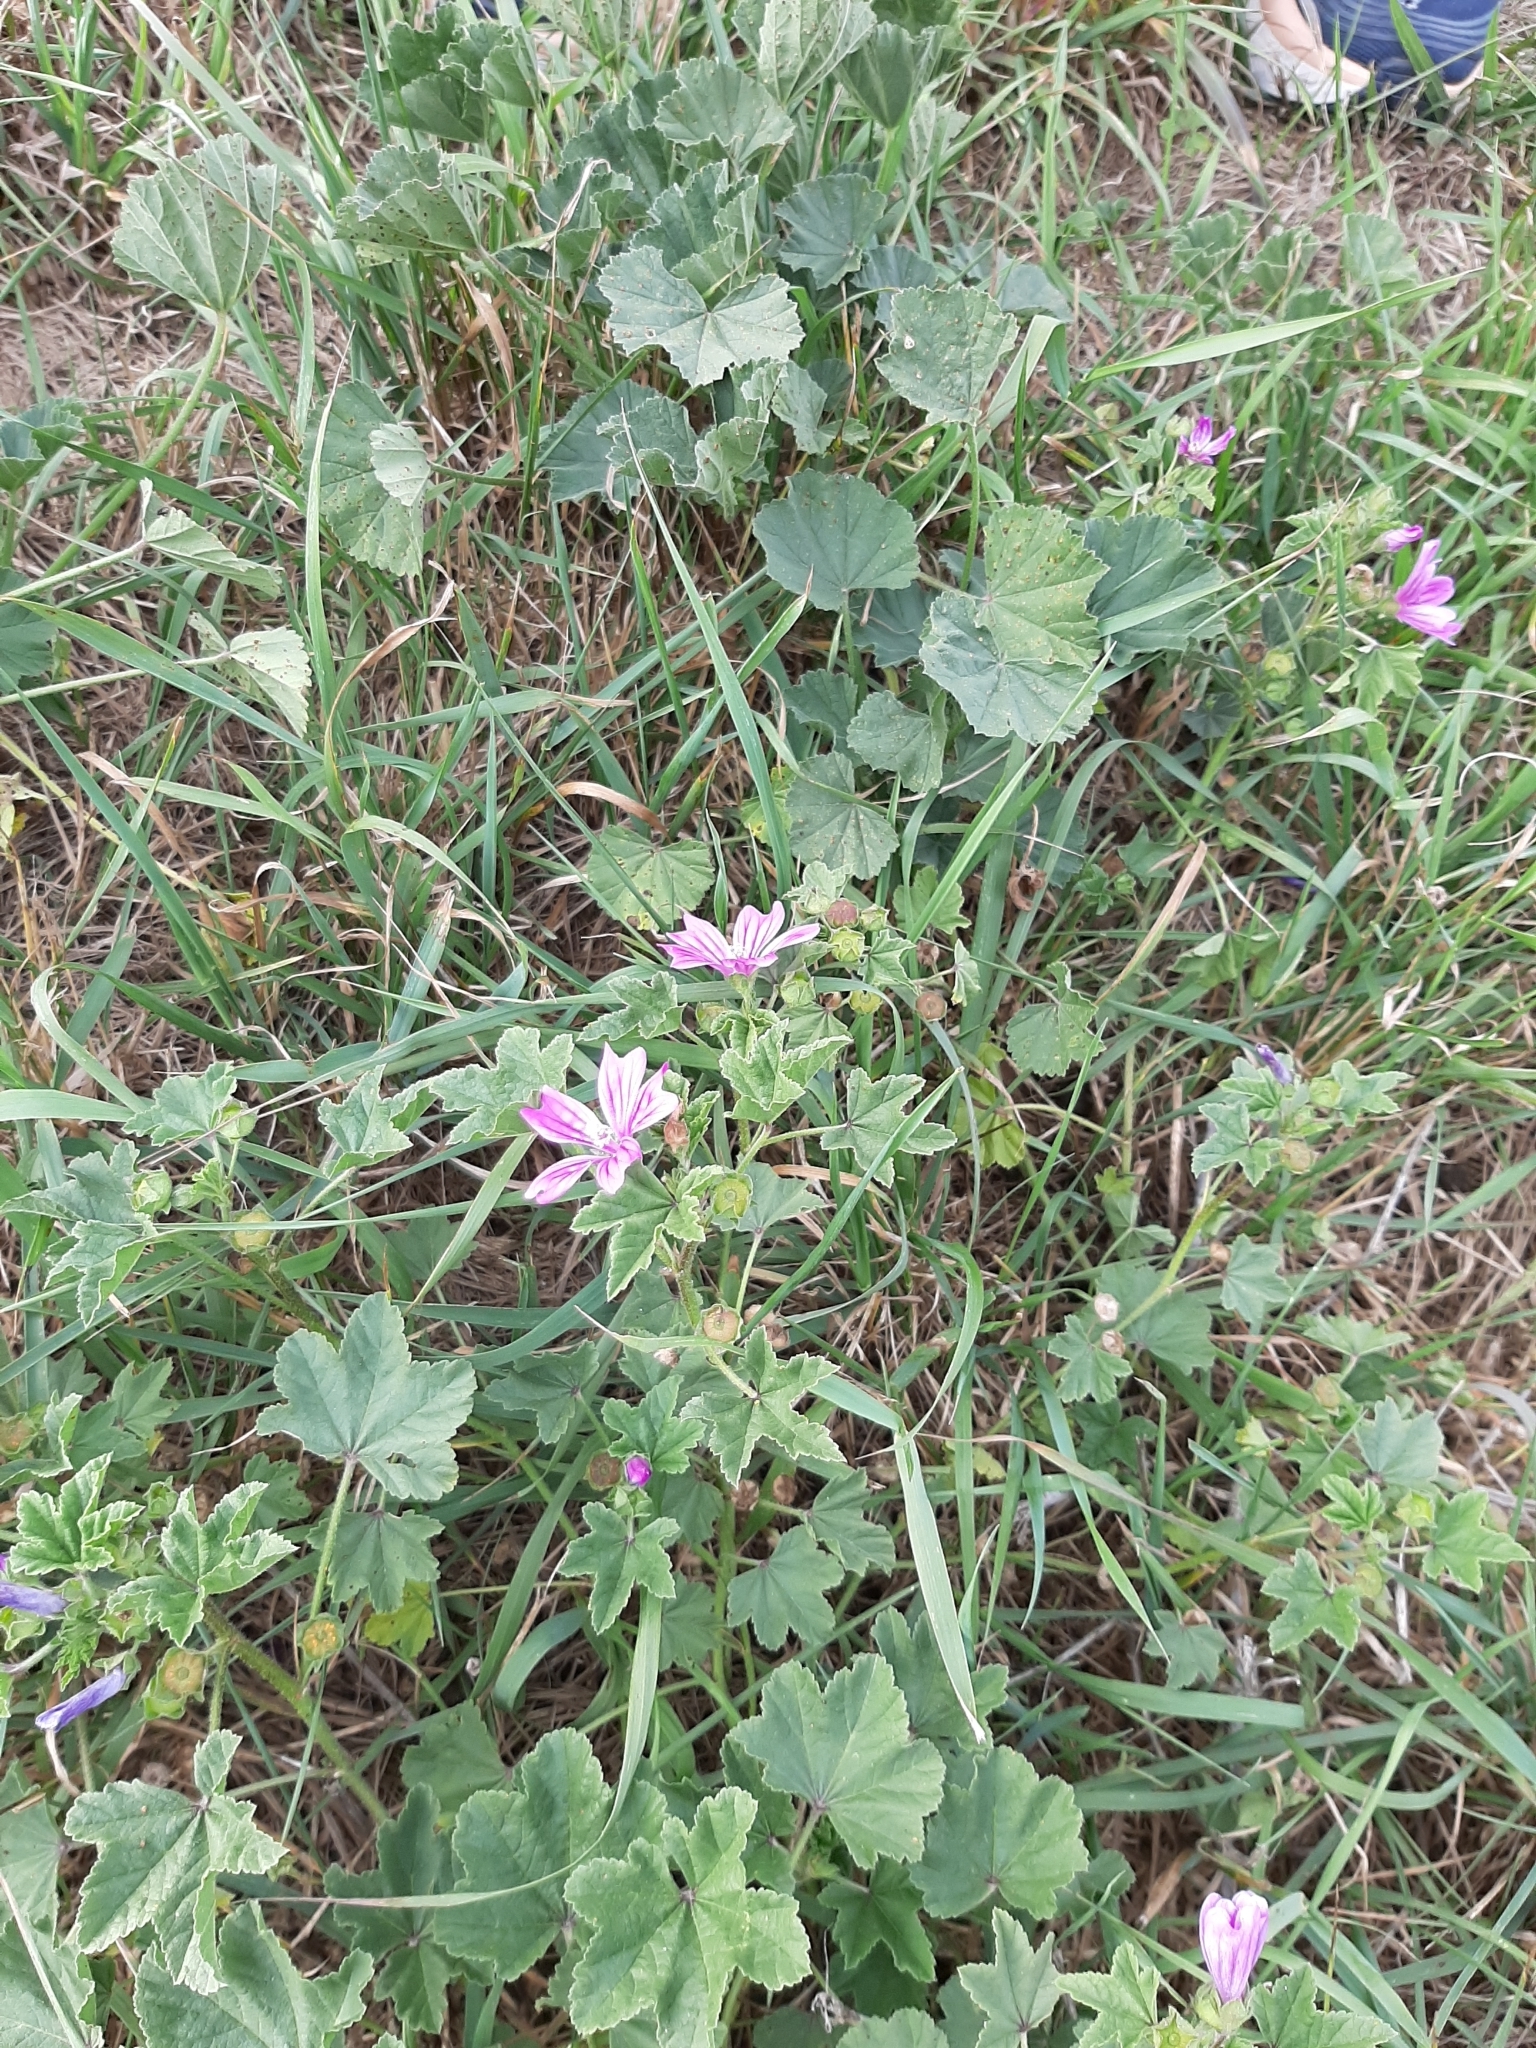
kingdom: Plantae
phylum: Tracheophyta
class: Magnoliopsida
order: Malvales
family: Malvaceae
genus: Malva
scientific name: Malva sylvestris
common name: Common mallow
